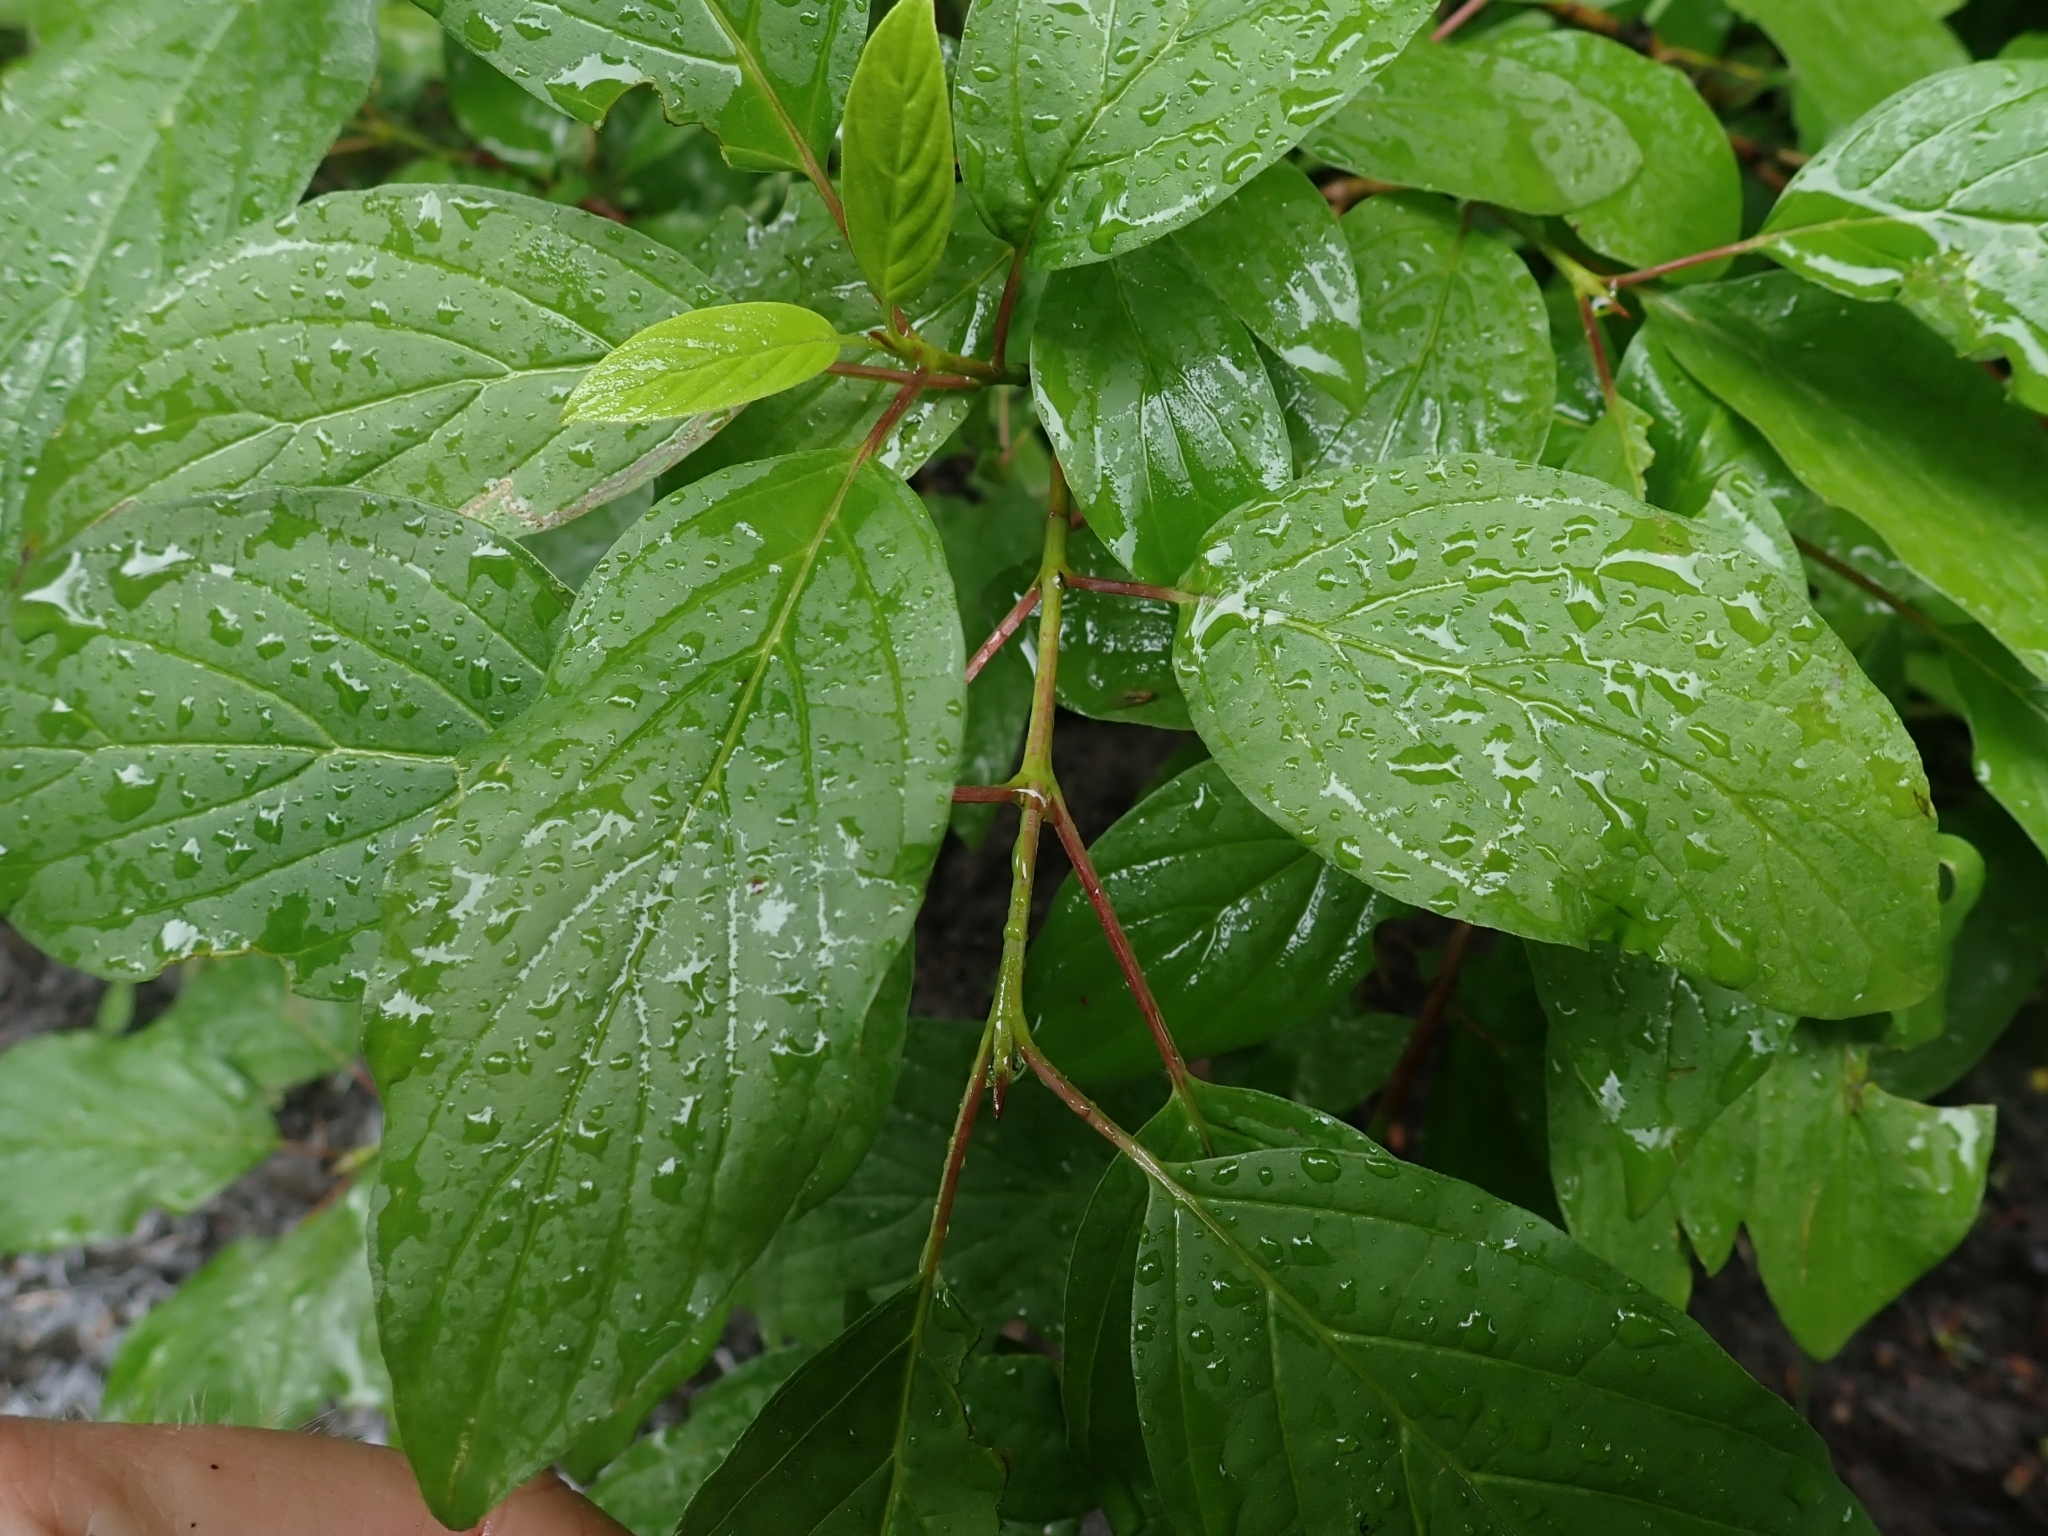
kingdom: Plantae
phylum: Tracheophyta
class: Magnoliopsida
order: Cornales
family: Cornaceae
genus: Cornus
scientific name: Cornus sericea
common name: Red-osier dogwood
